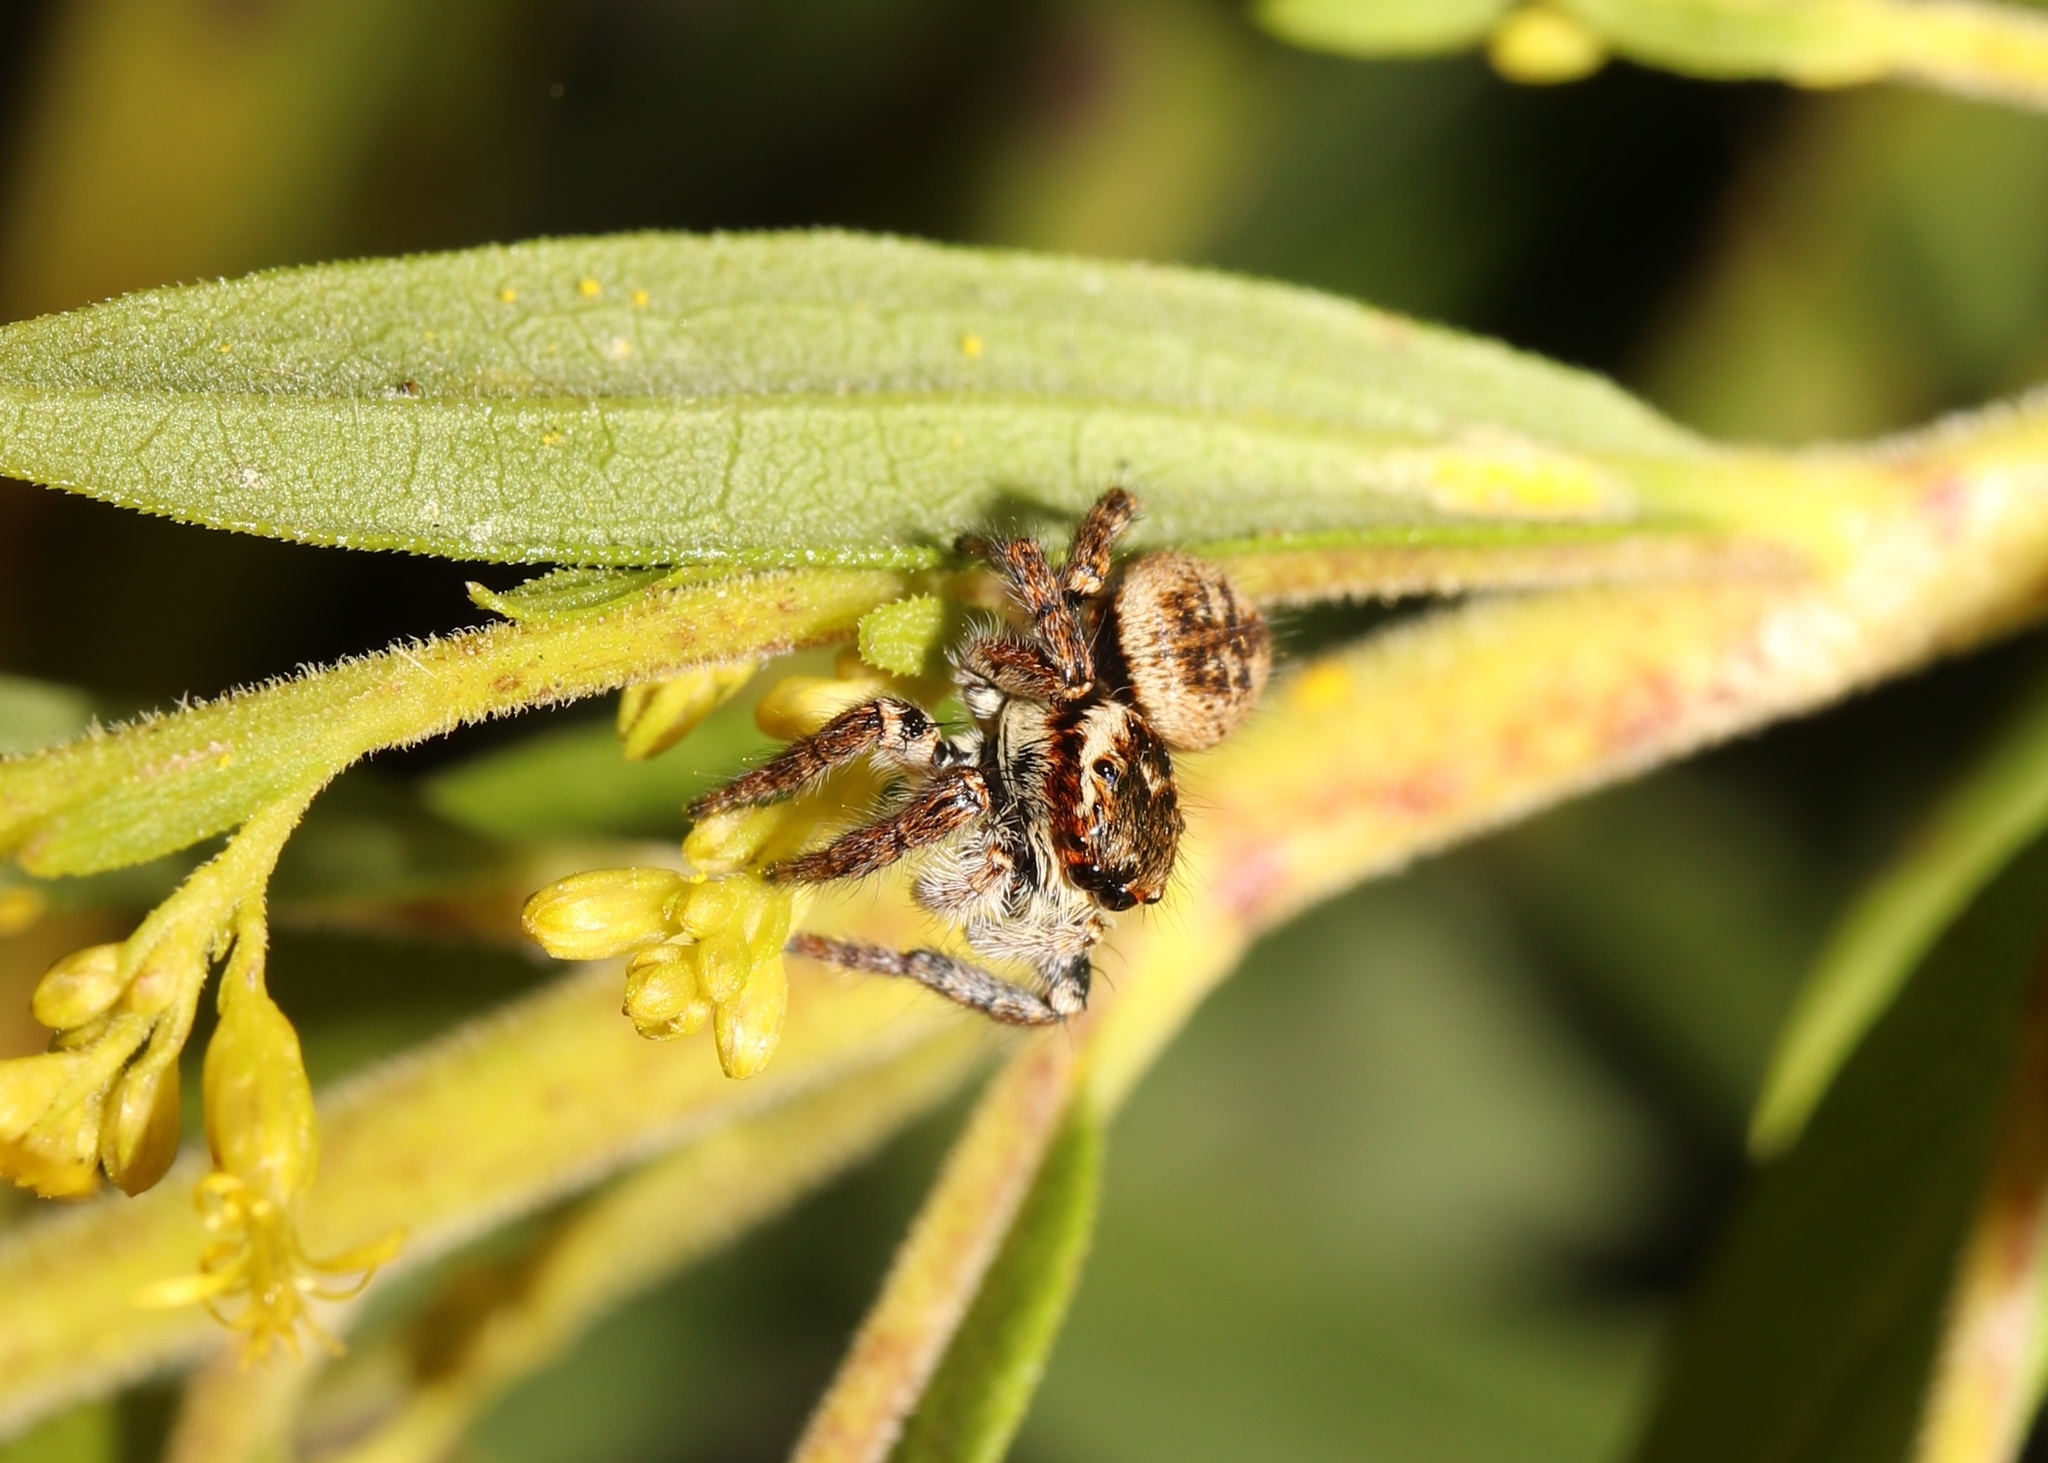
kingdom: Animalia
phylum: Arthropoda
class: Arachnida
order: Araneae
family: Salticidae
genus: Carrhotus
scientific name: Carrhotus xanthogramma
